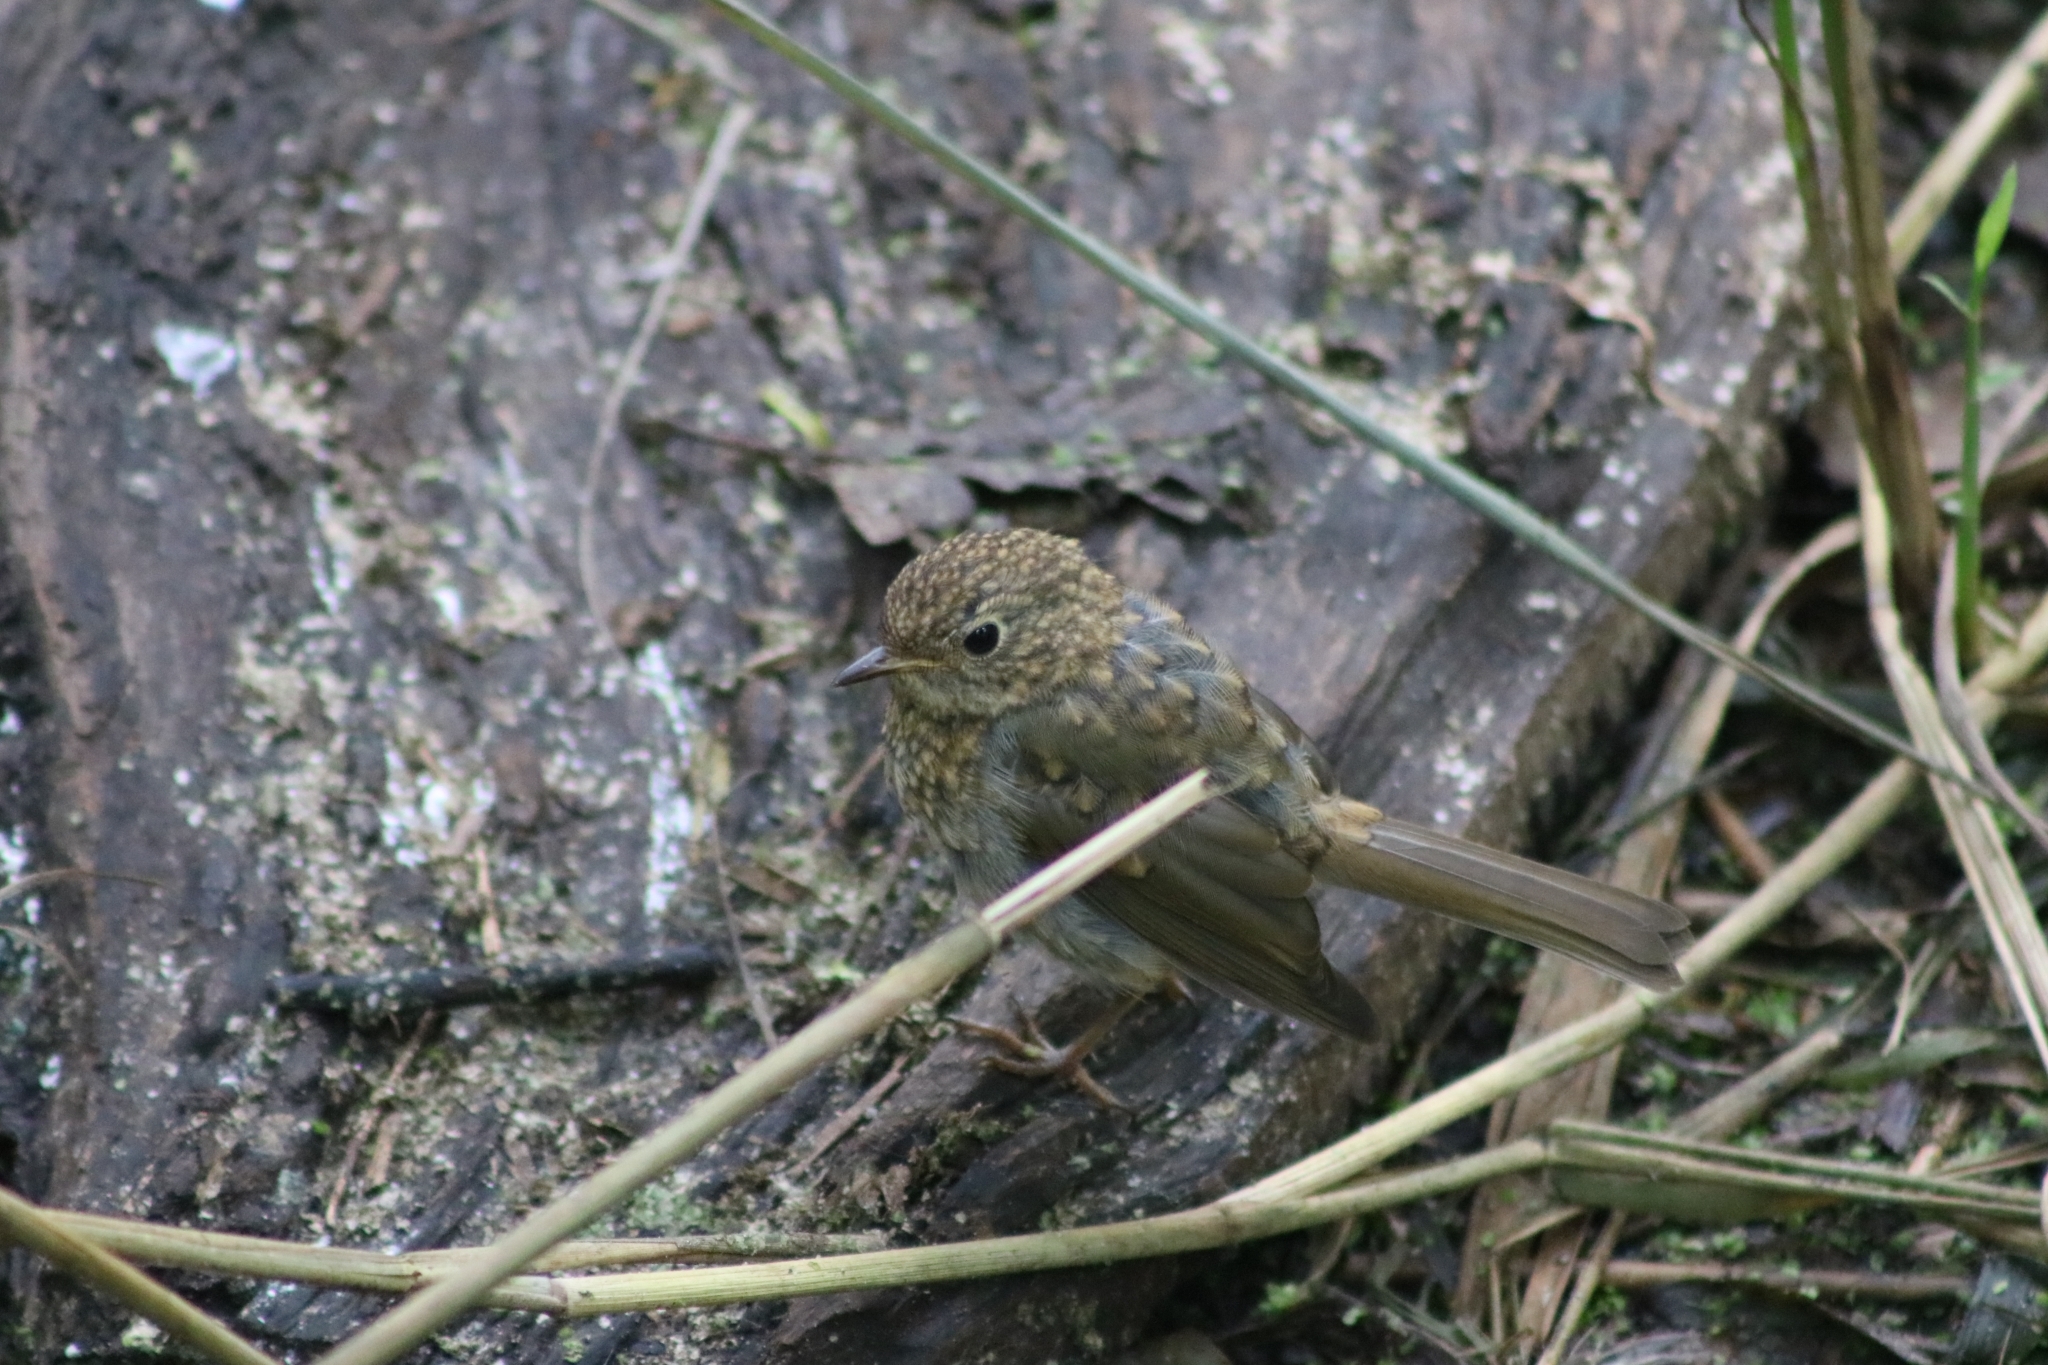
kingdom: Animalia
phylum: Chordata
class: Aves
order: Passeriformes
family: Muscicapidae
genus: Erithacus
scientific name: Erithacus rubecula
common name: European robin
